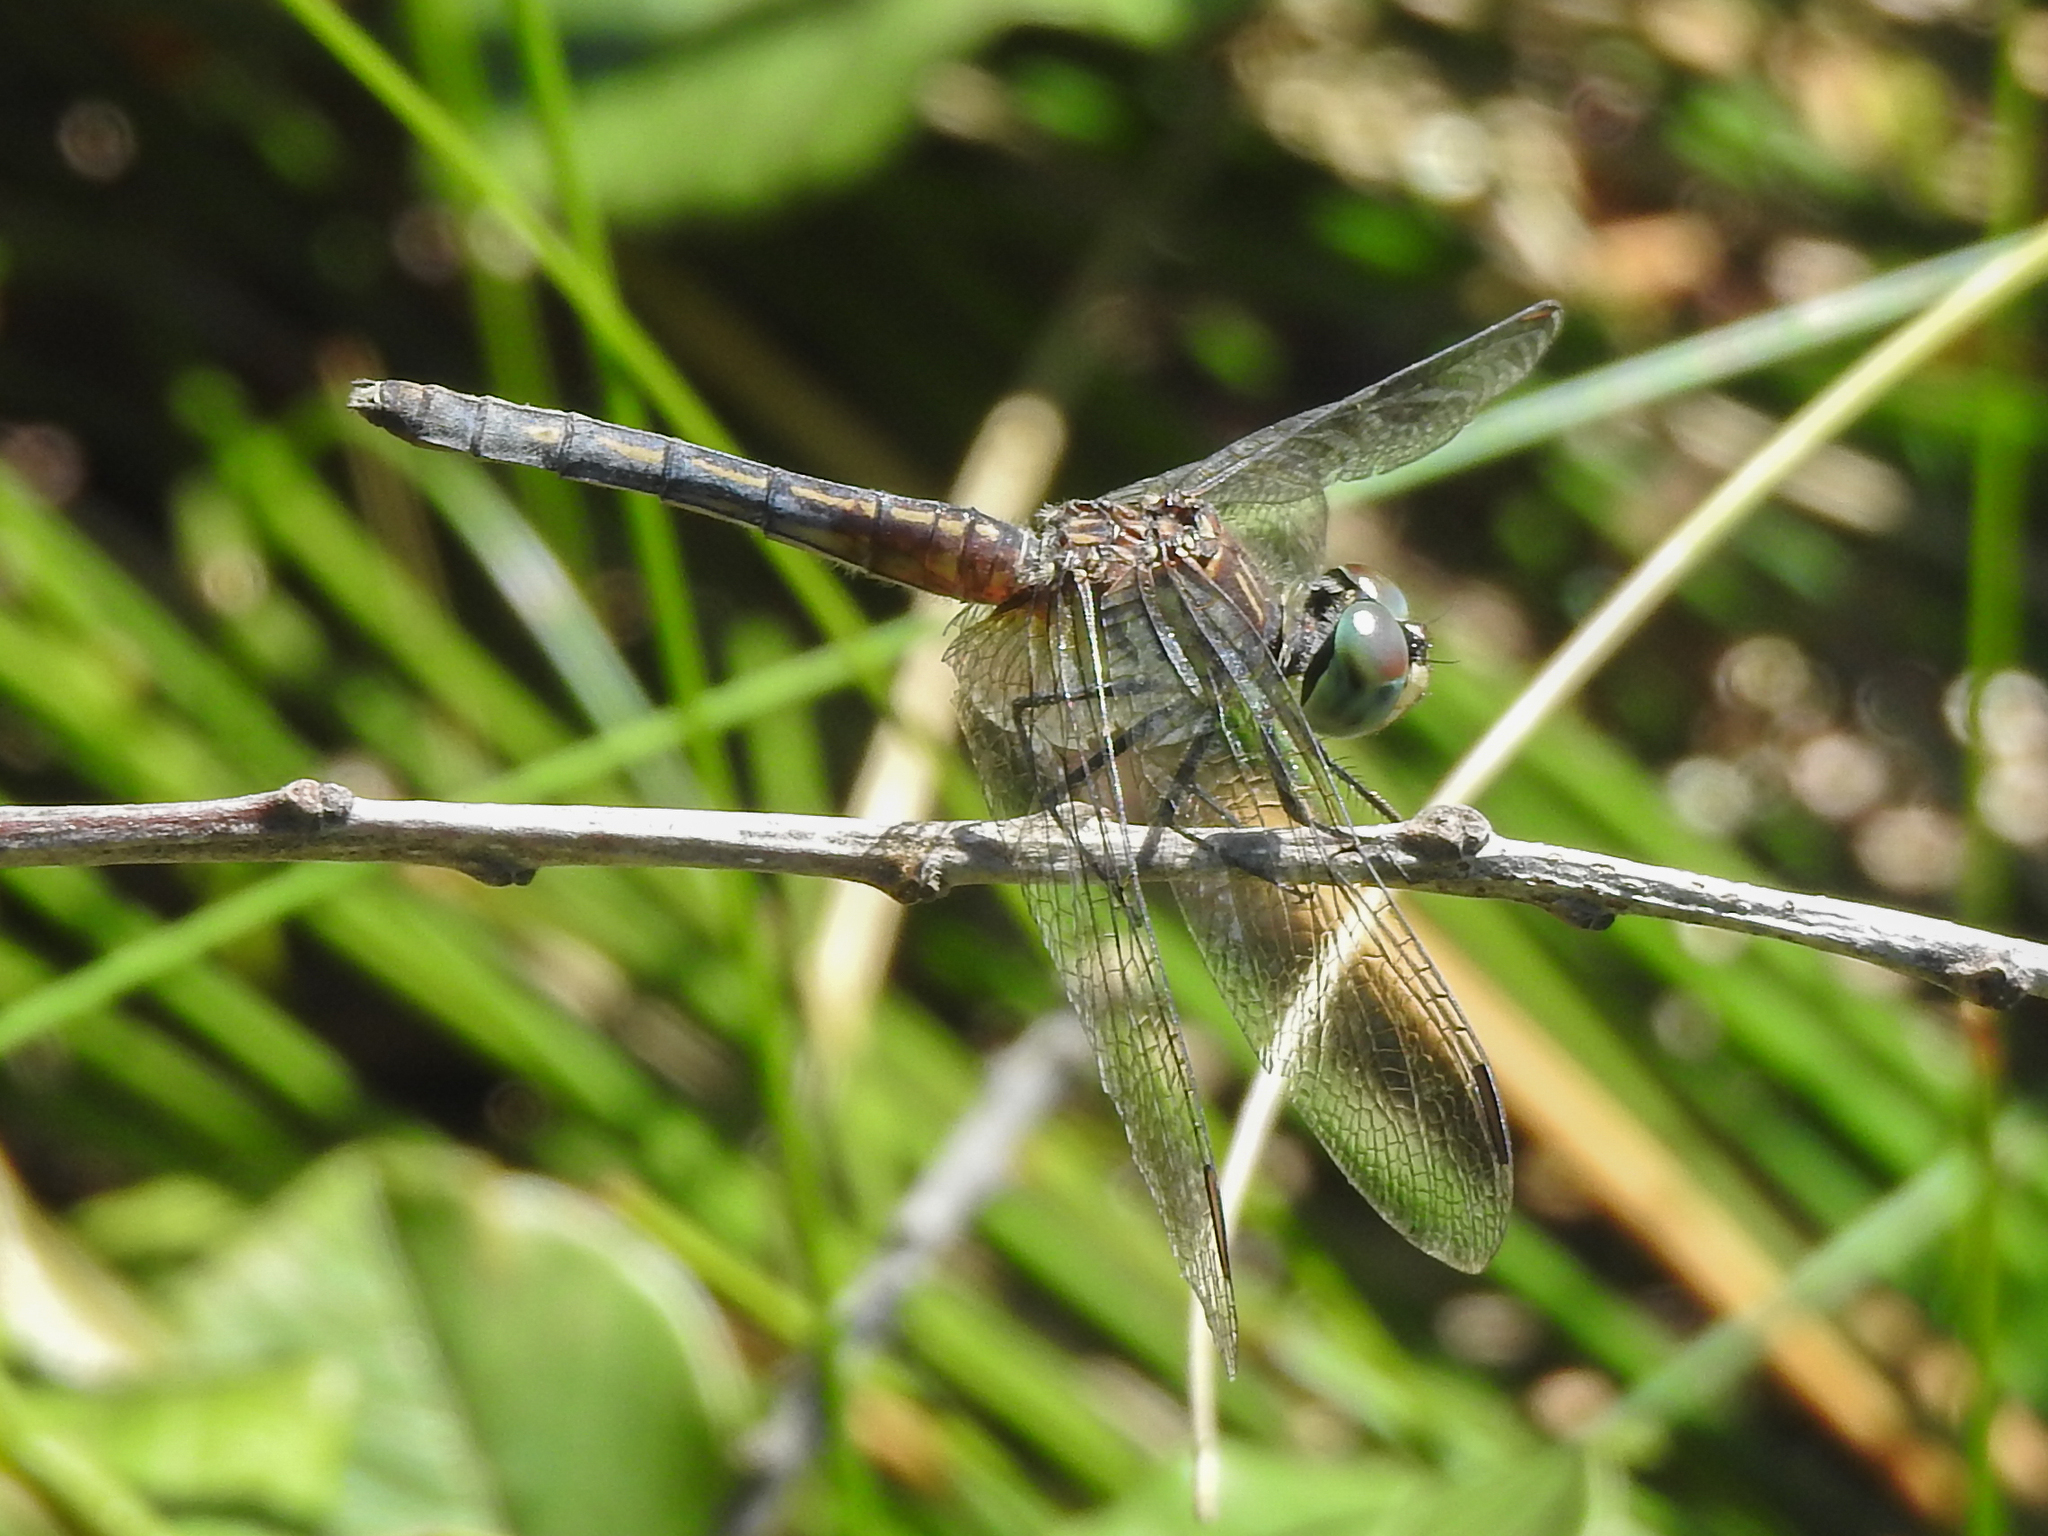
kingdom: Animalia
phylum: Arthropoda
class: Insecta
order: Odonata
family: Libellulidae
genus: Pachydiplax
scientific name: Pachydiplax longipennis
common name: Blue dasher
